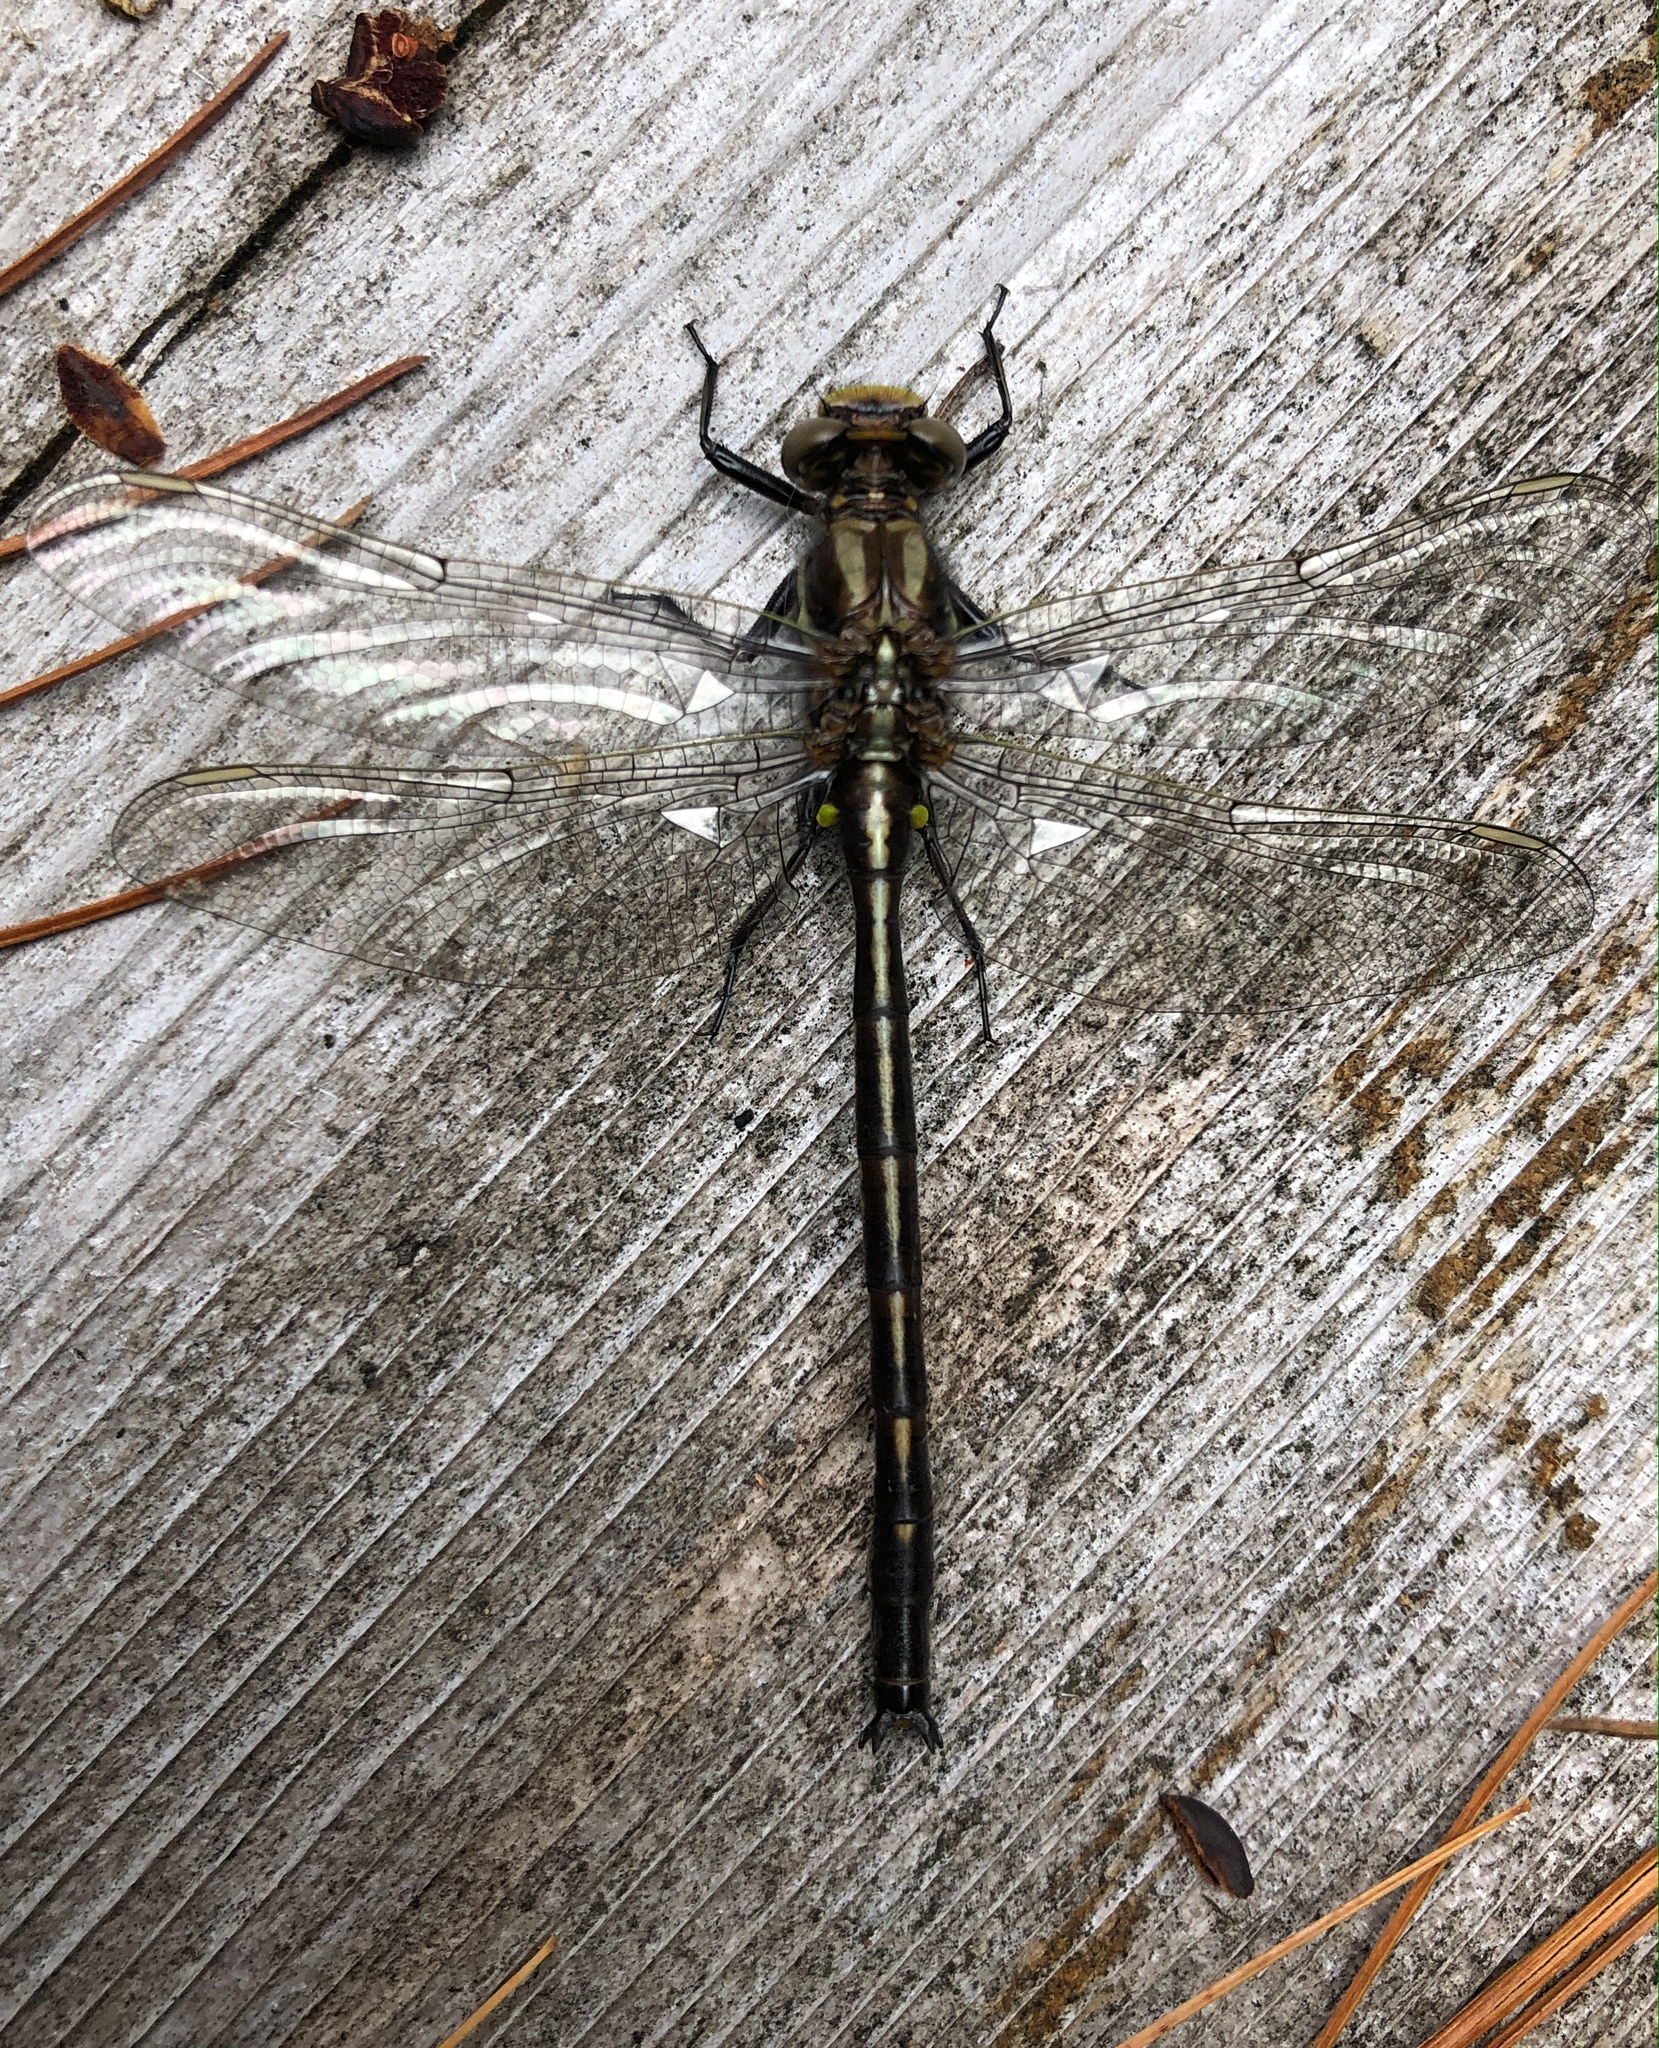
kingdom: Animalia
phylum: Arthropoda
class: Insecta
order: Odonata
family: Gomphidae
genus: Phanogomphus
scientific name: Phanogomphus spicatus
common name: Dusky clubtail
